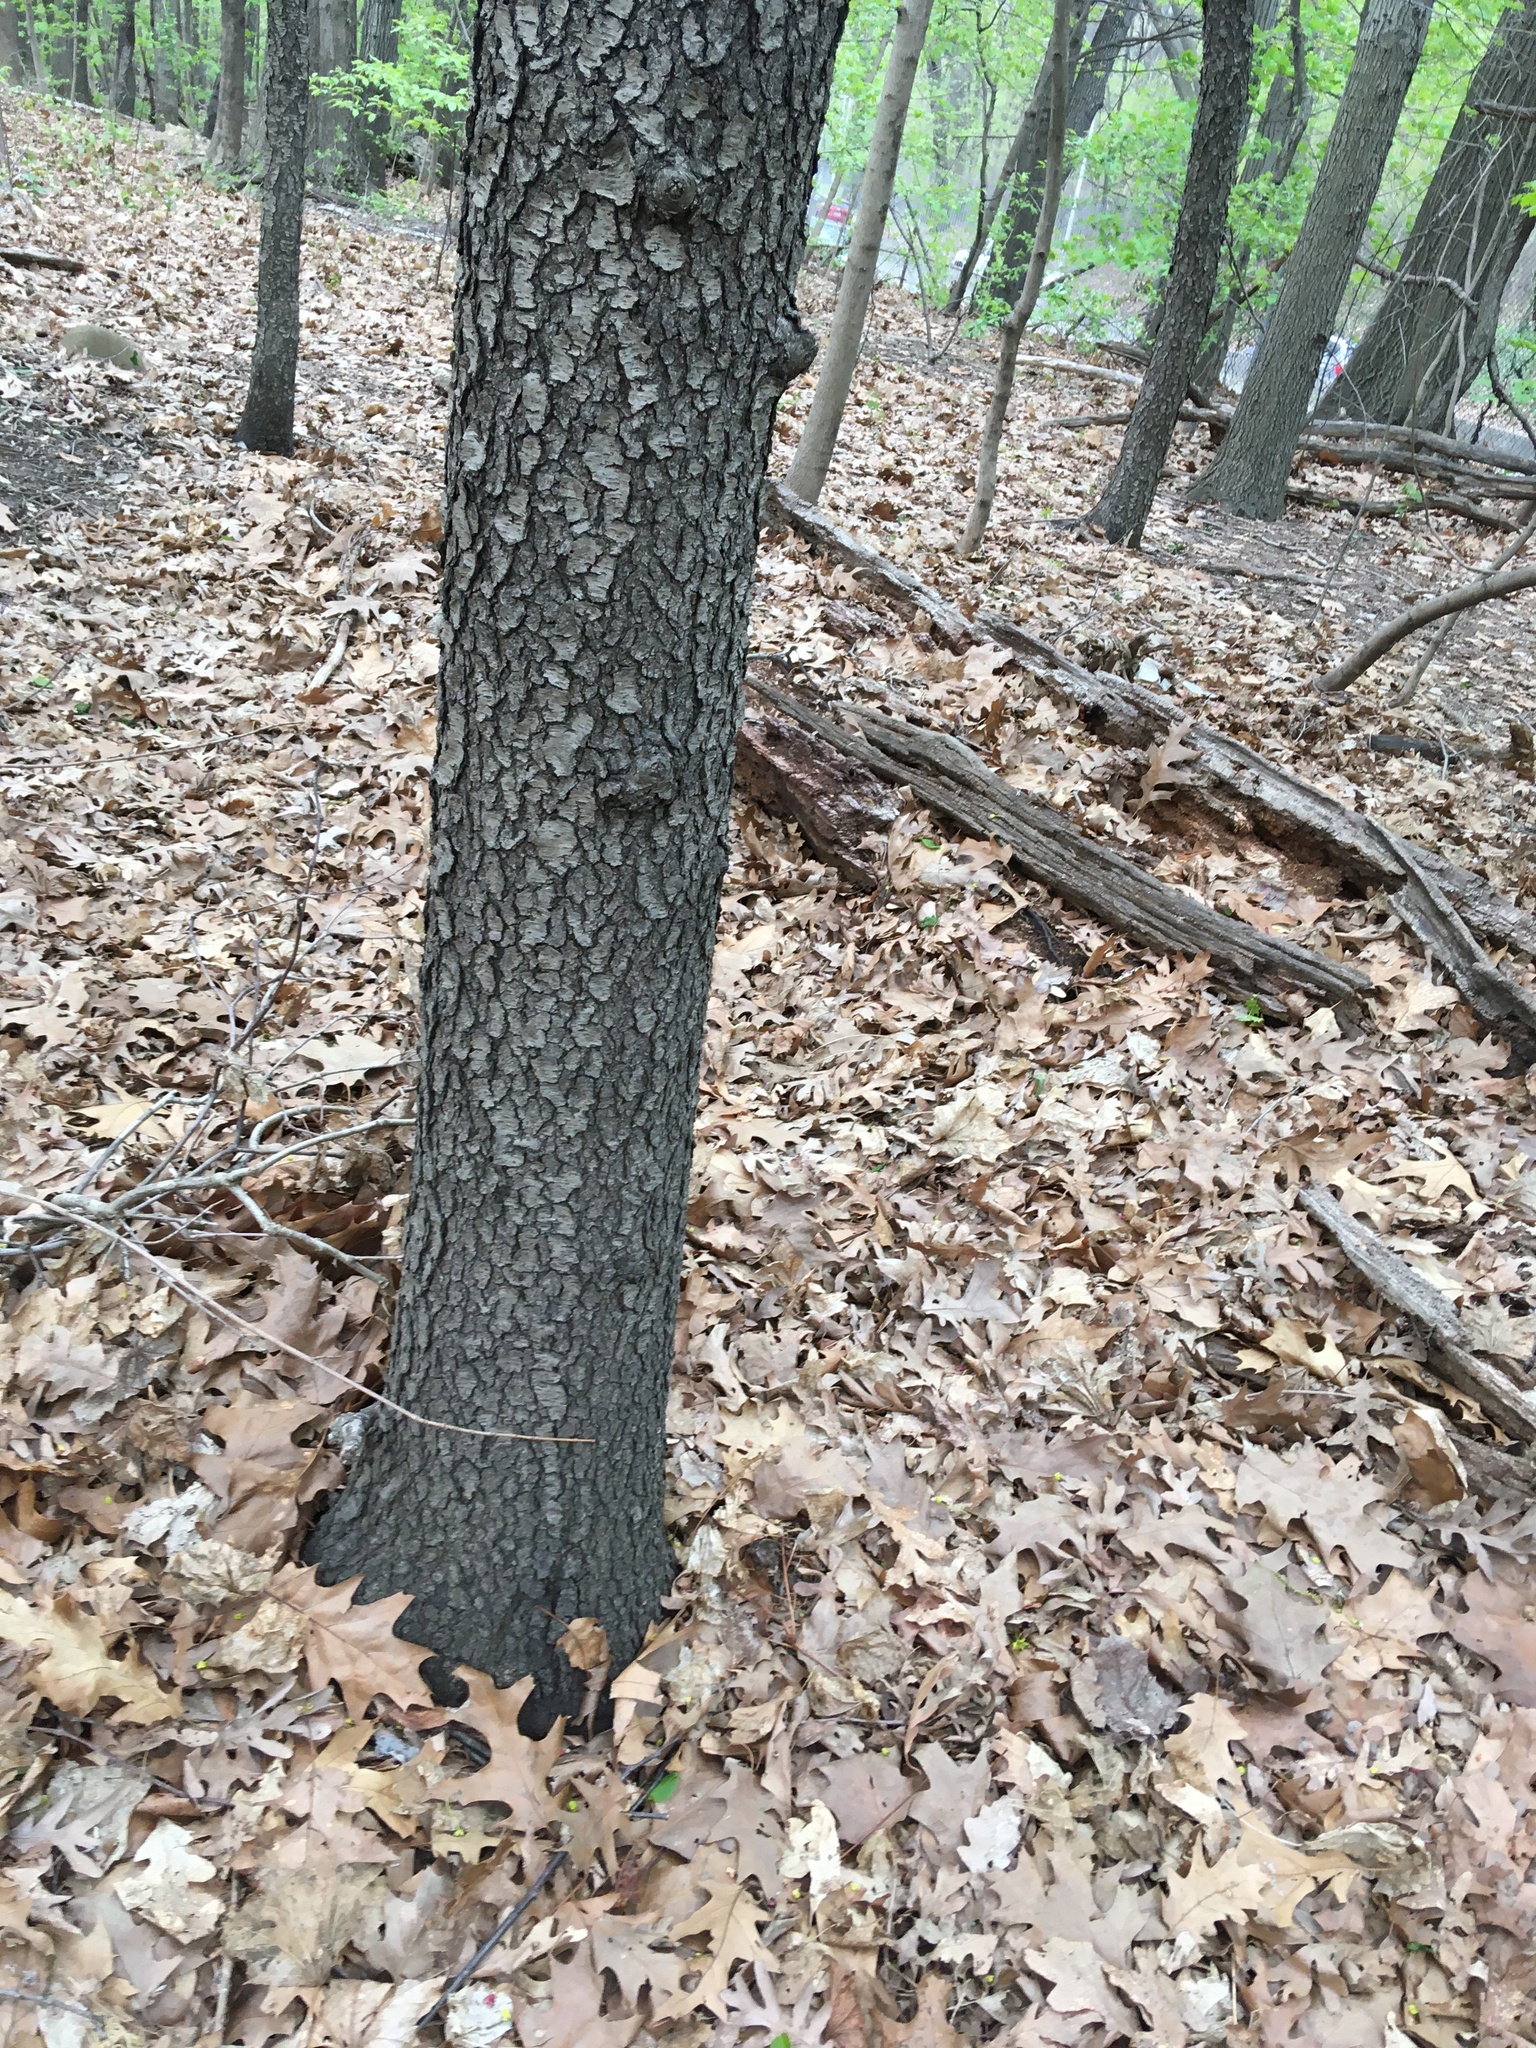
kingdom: Plantae
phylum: Tracheophyta
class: Magnoliopsida
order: Rosales
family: Rosaceae
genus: Prunus
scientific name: Prunus serotina
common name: Black cherry
